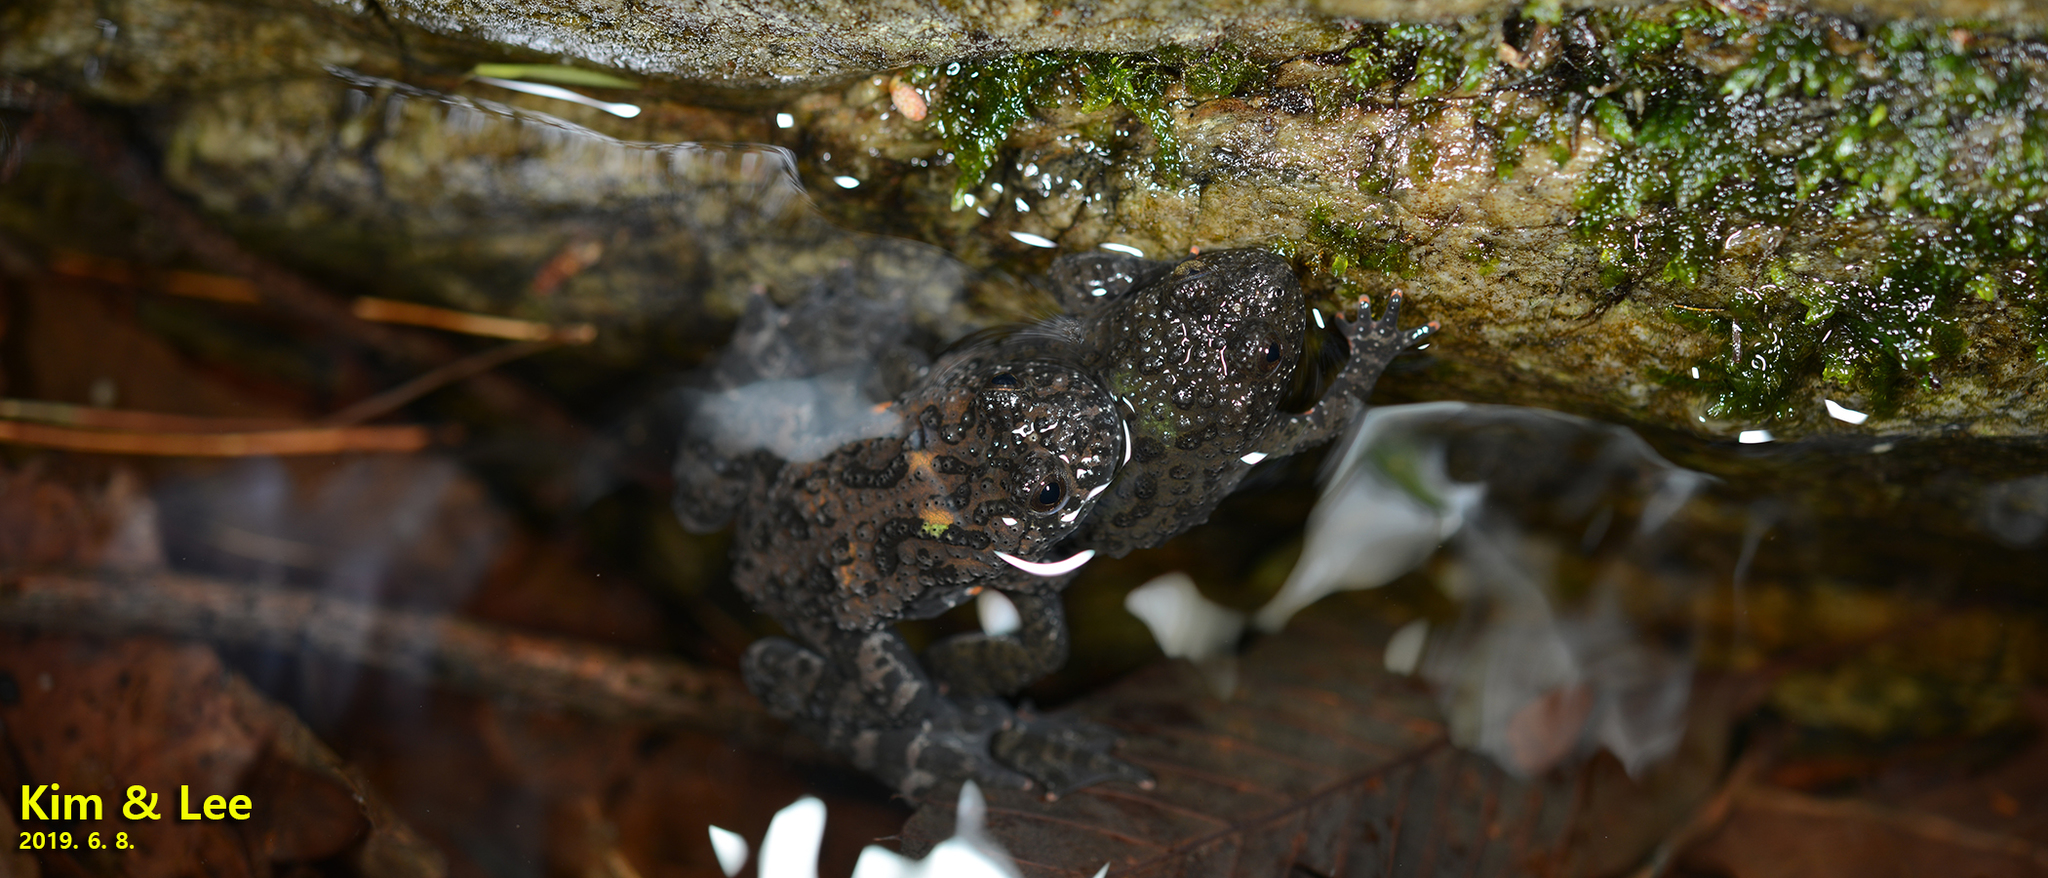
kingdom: Animalia
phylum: Chordata
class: Amphibia
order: Anura
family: Bombinatoridae
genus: Bombina
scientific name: Bombina orientalis
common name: Oriental firebelly toad
